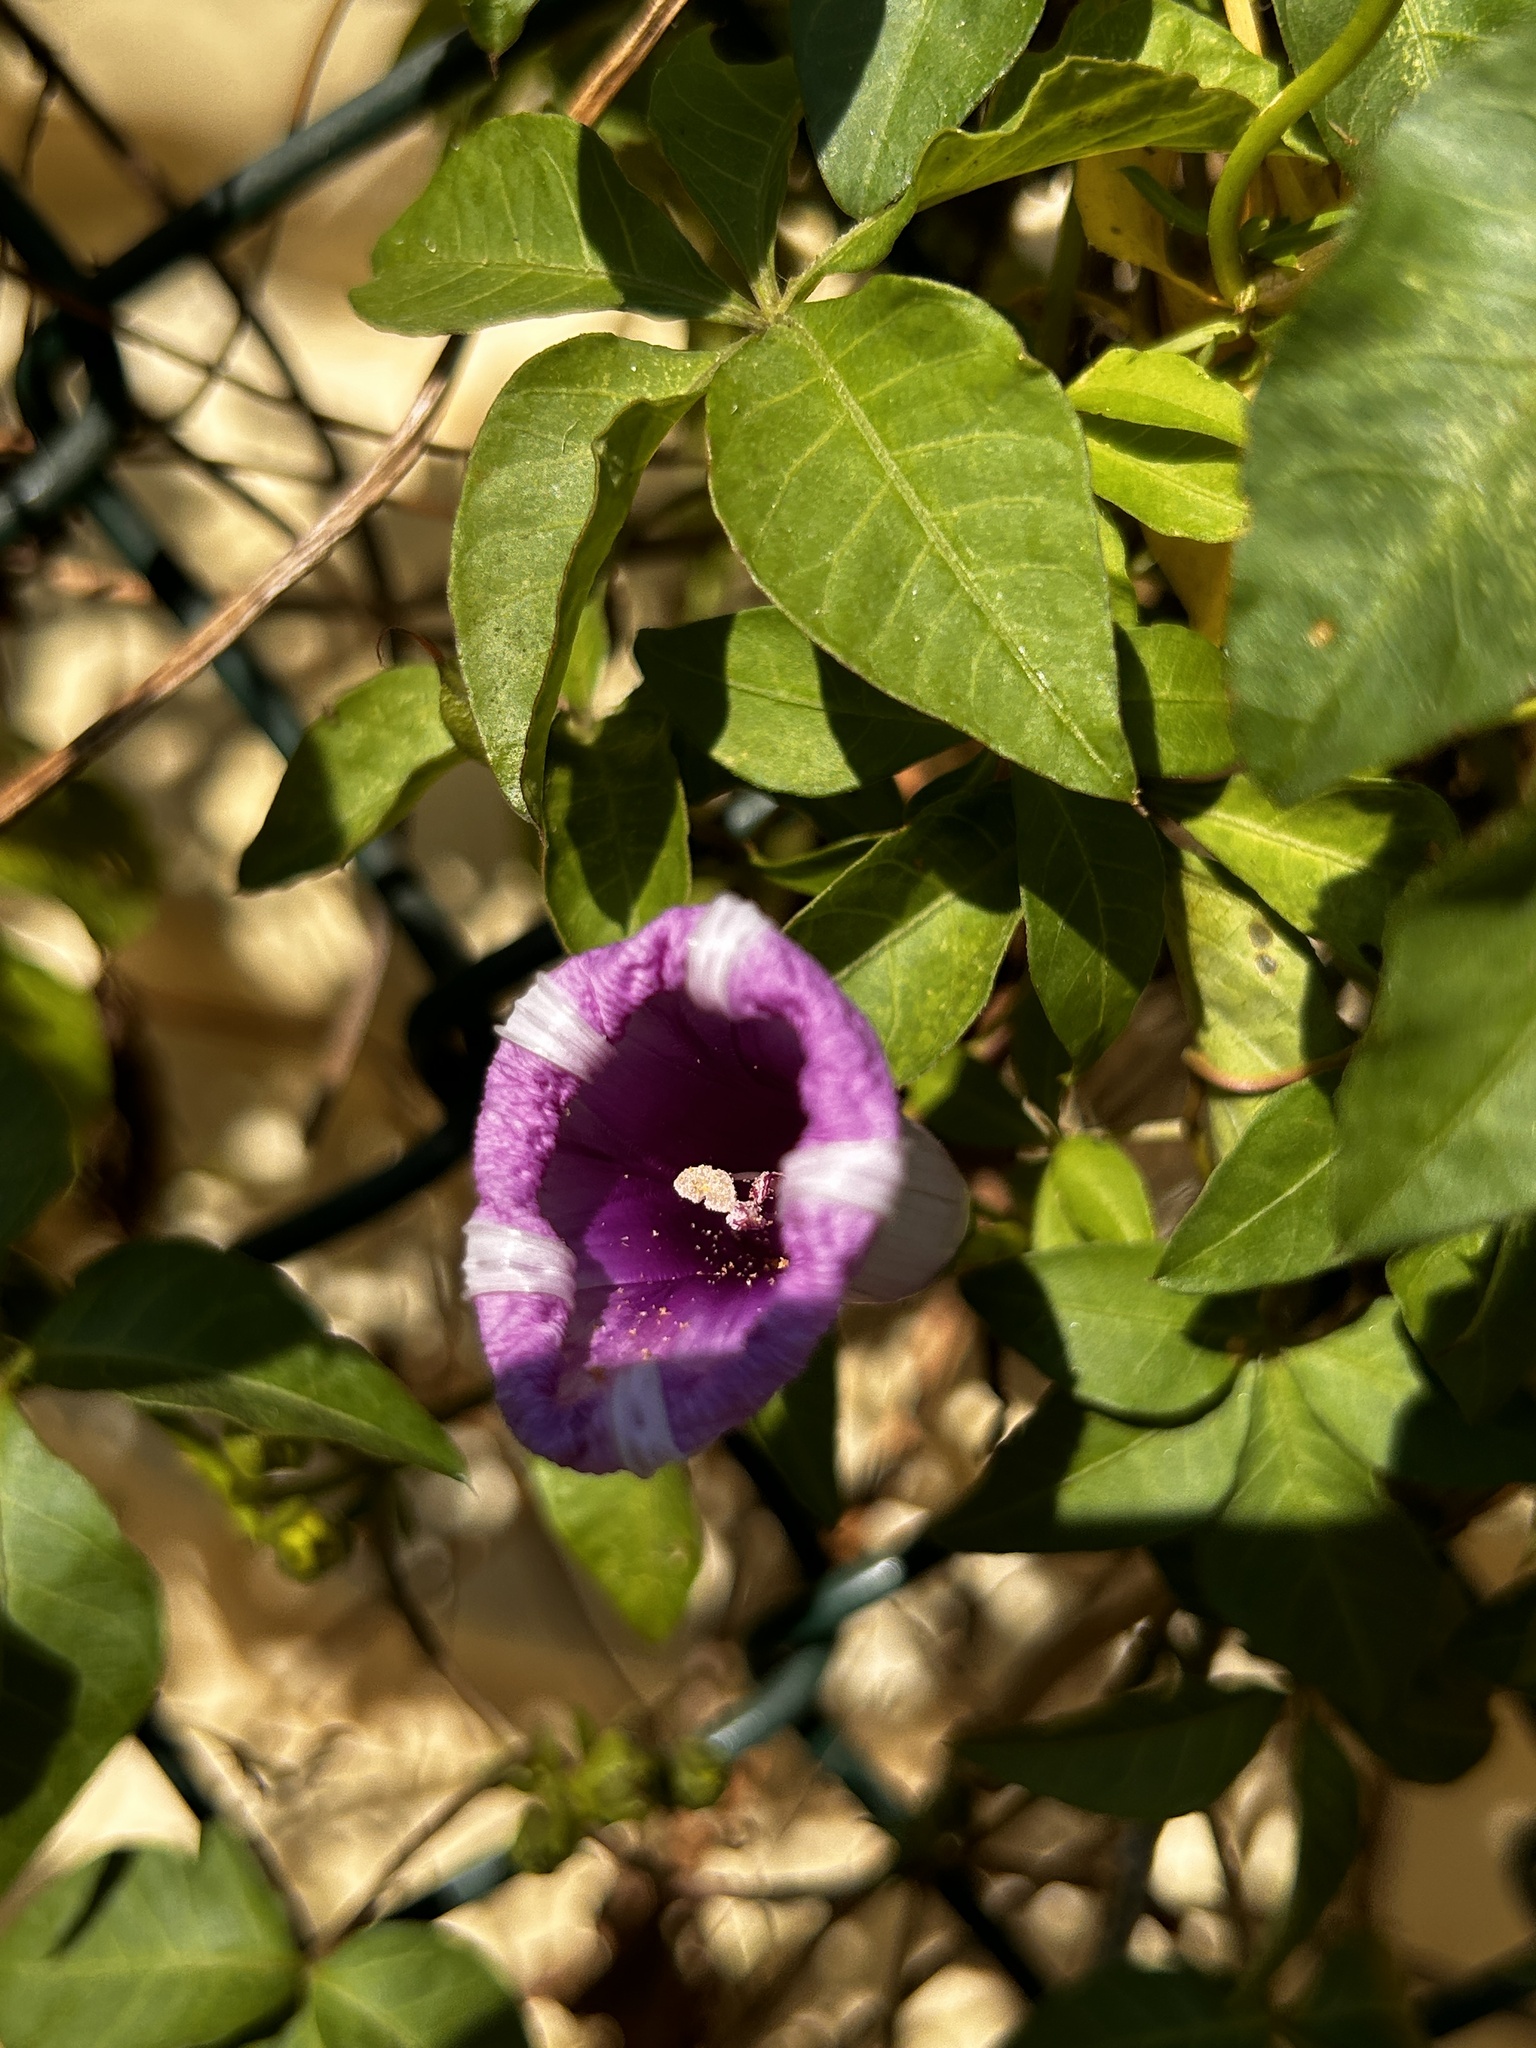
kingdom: Plantae
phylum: Tracheophyta
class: Magnoliopsida
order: Solanales
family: Convolvulaceae
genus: Ipomoea
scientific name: Ipomoea cairica
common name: Mile a minute vine
